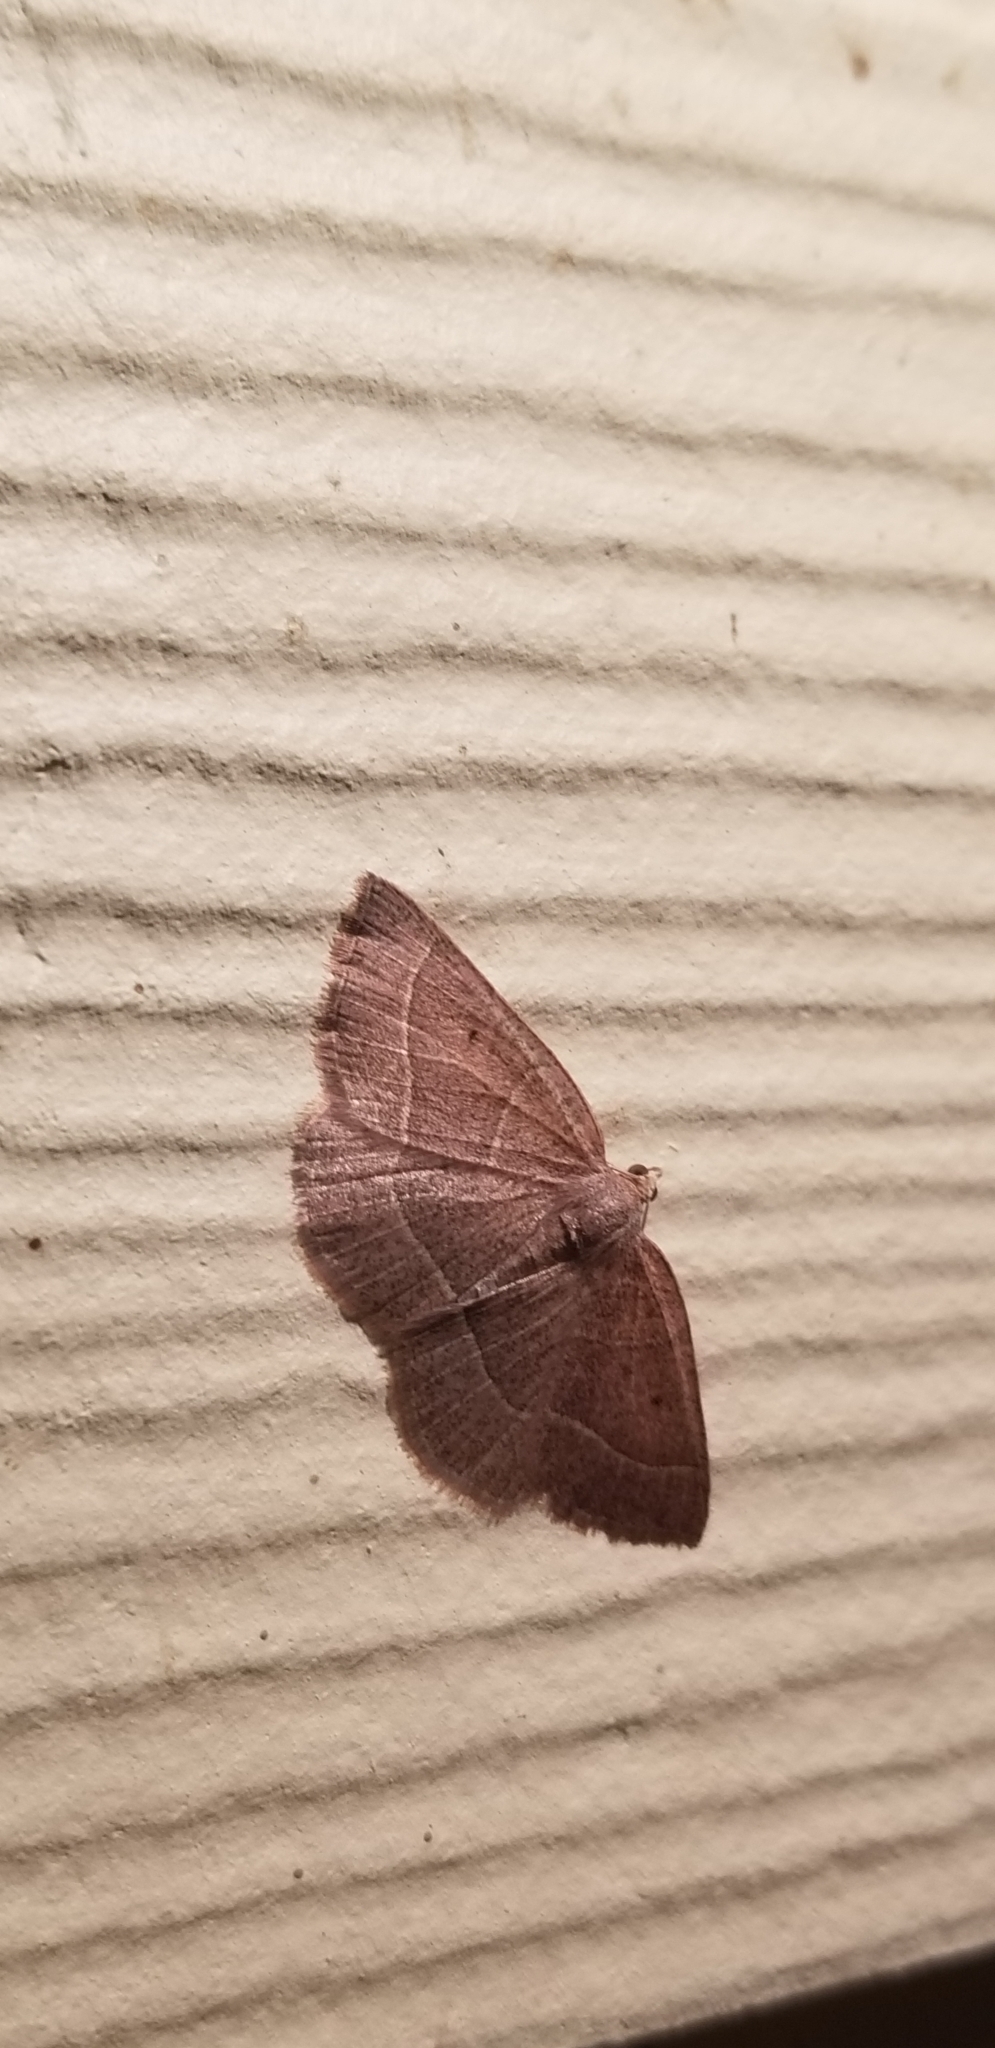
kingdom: Animalia
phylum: Arthropoda
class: Insecta
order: Lepidoptera
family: Geometridae
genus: Episemasia
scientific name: Episemasia cervinaria
